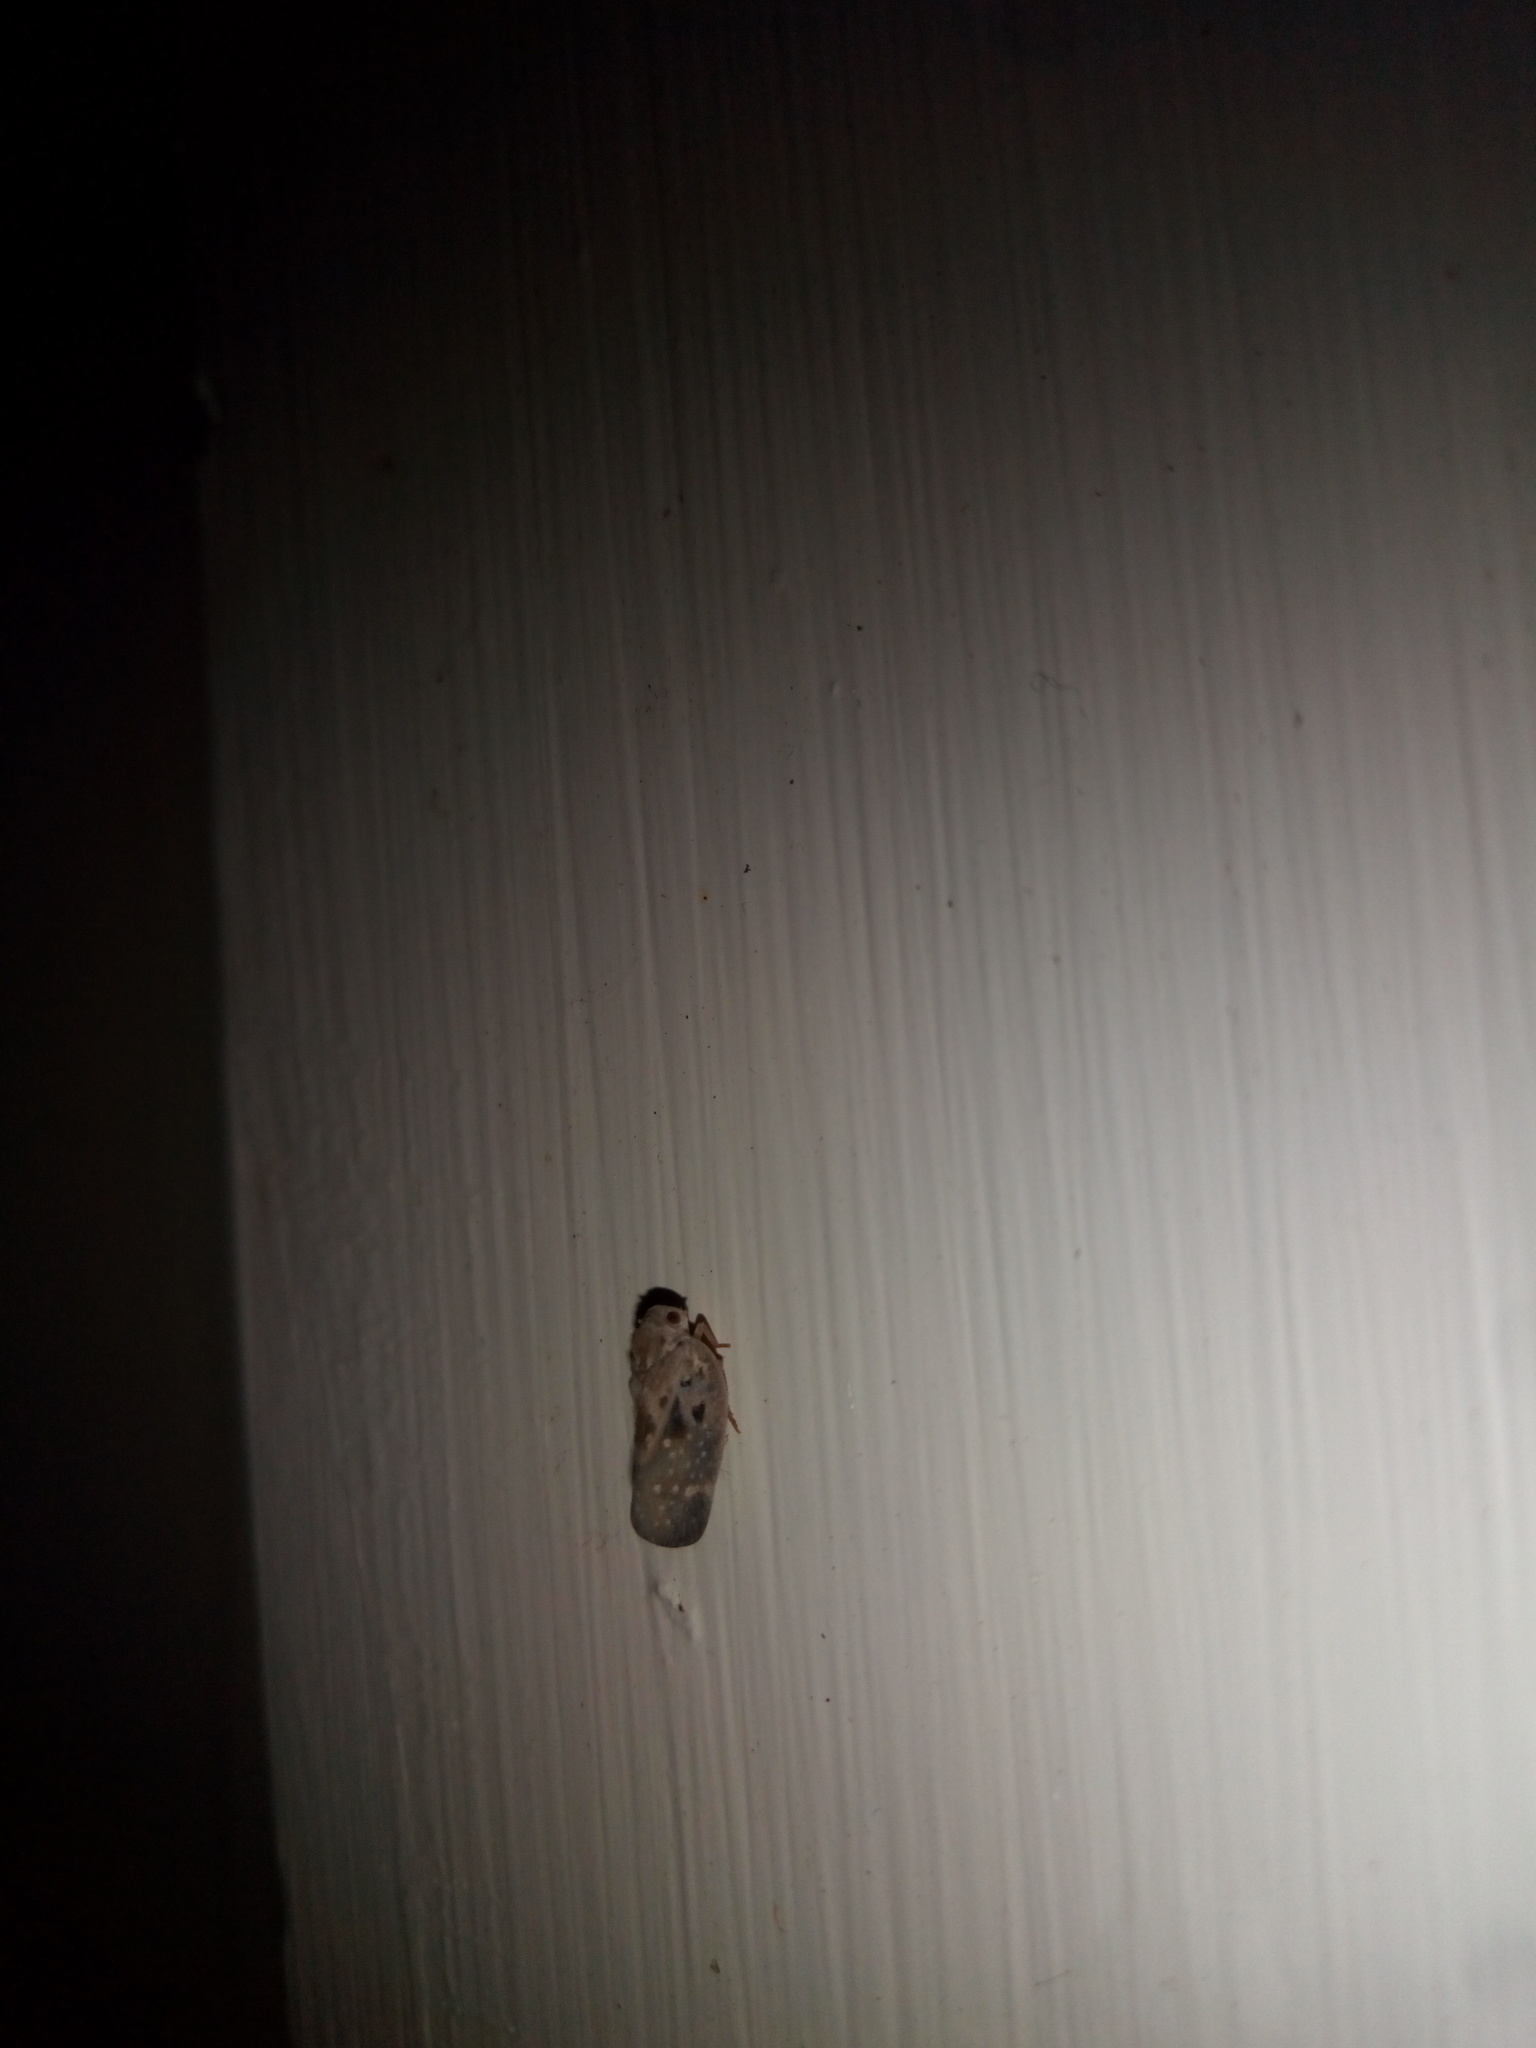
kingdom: Animalia
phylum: Arthropoda
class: Insecta
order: Hemiptera
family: Flatidae
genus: Metcalfa
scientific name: Metcalfa pruinosa
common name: Citrus flatid planthopper
